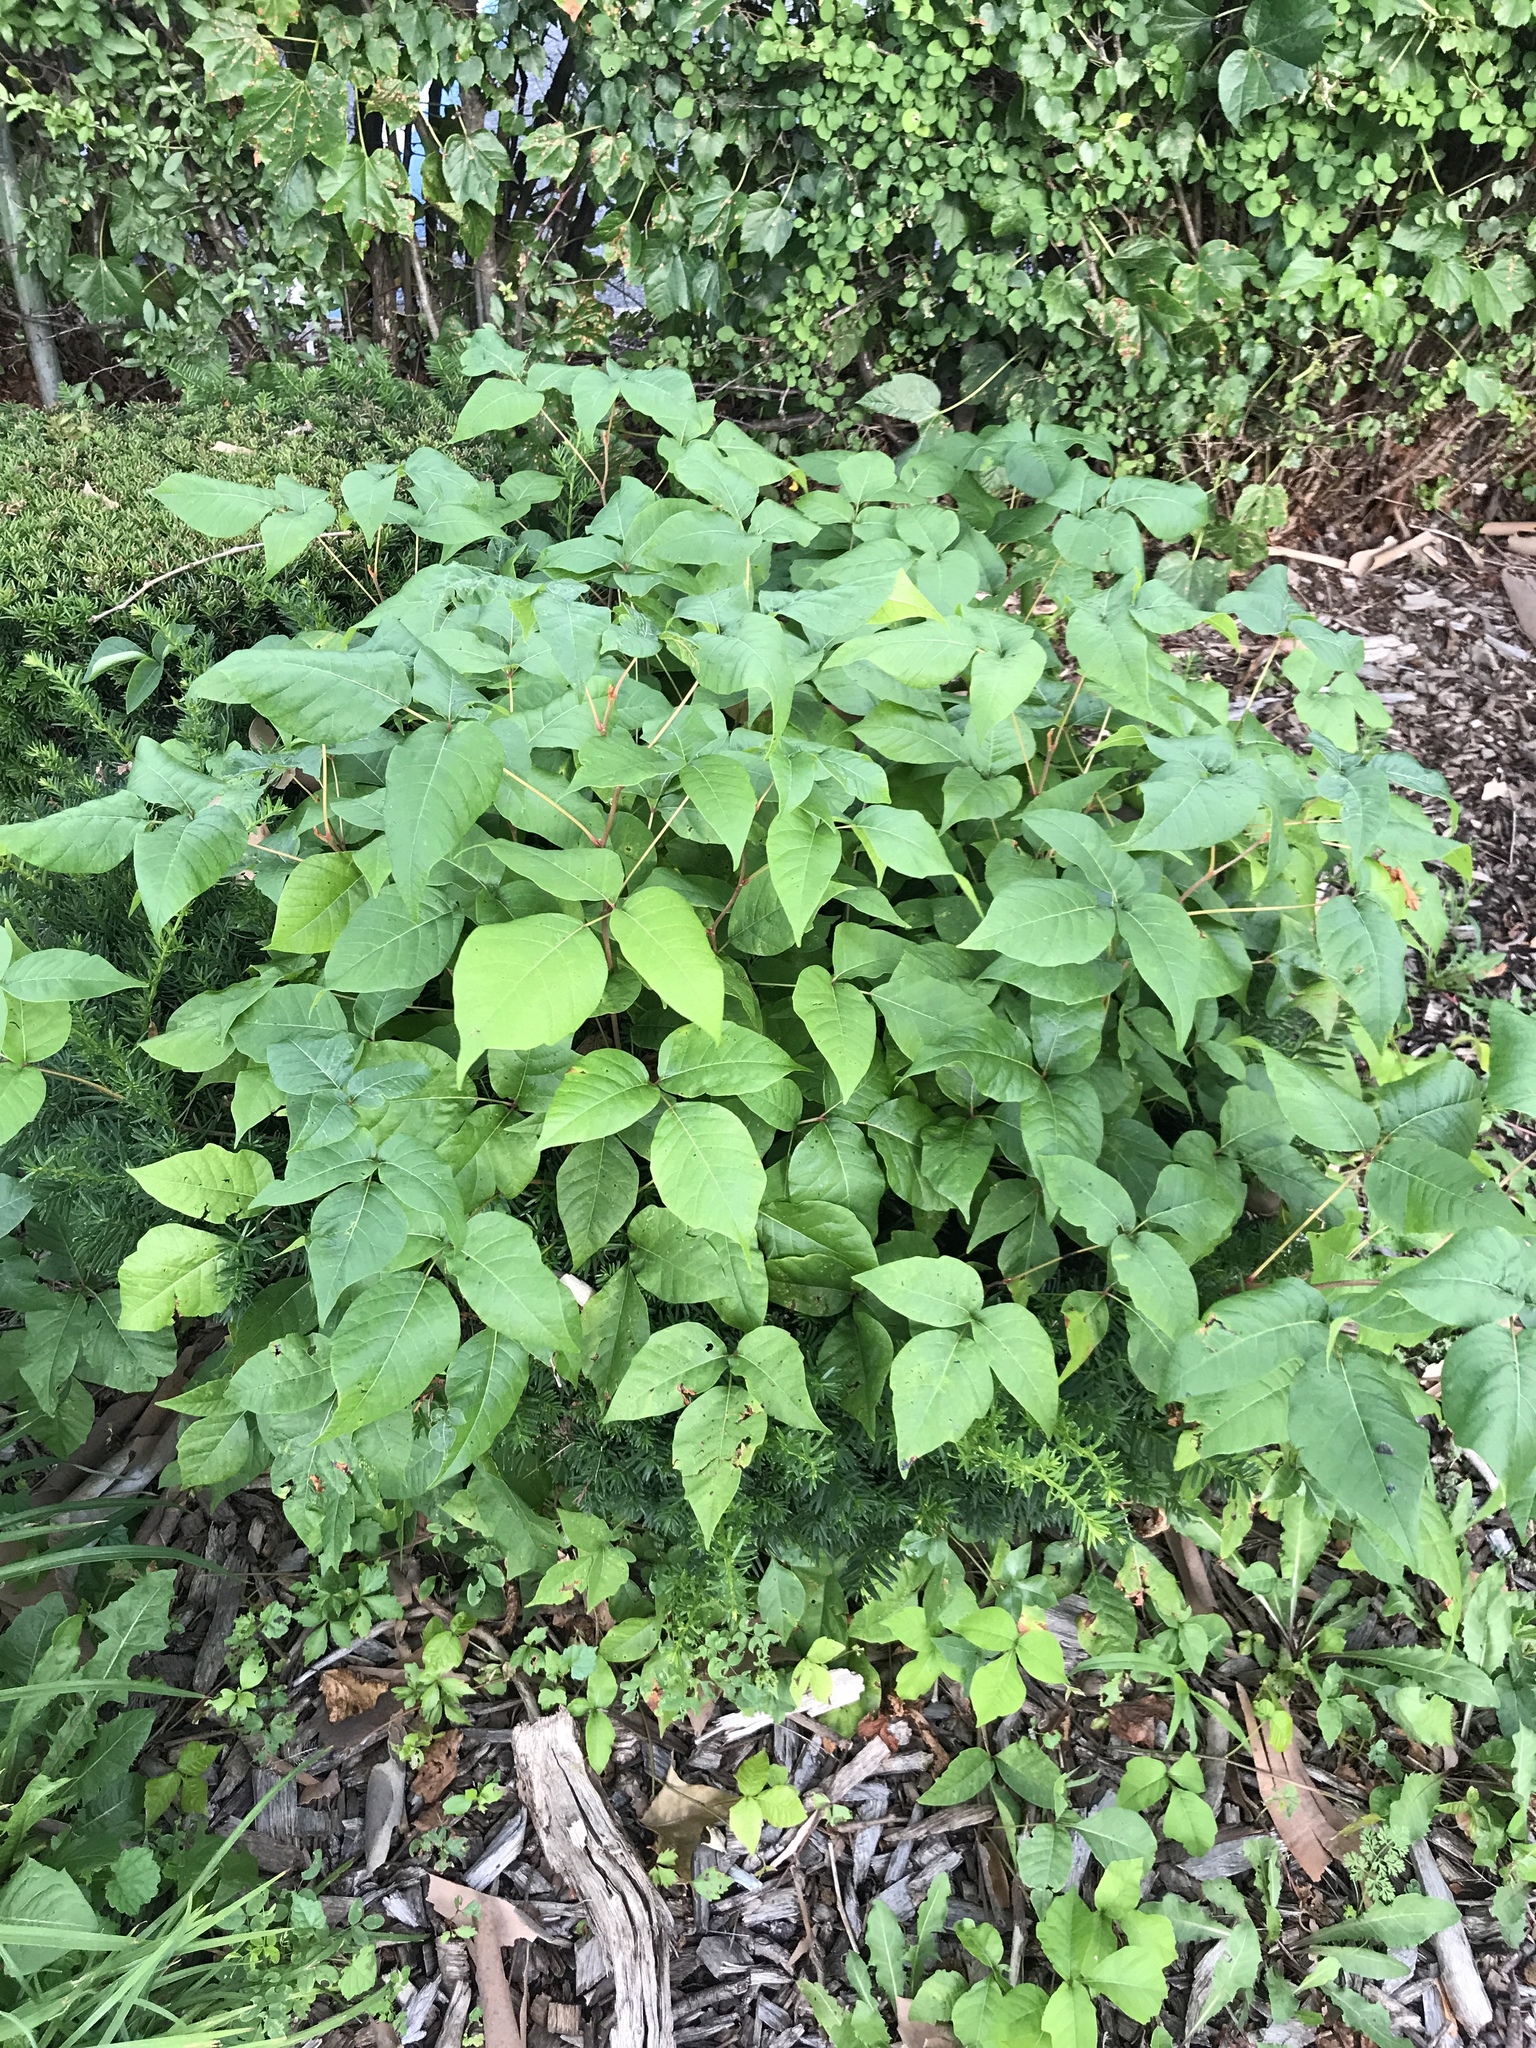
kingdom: Plantae
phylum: Tracheophyta
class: Magnoliopsida
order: Sapindales
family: Anacardiaceae
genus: Toxicodendron
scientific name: Toxicodendron radicans
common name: Poison ivy
